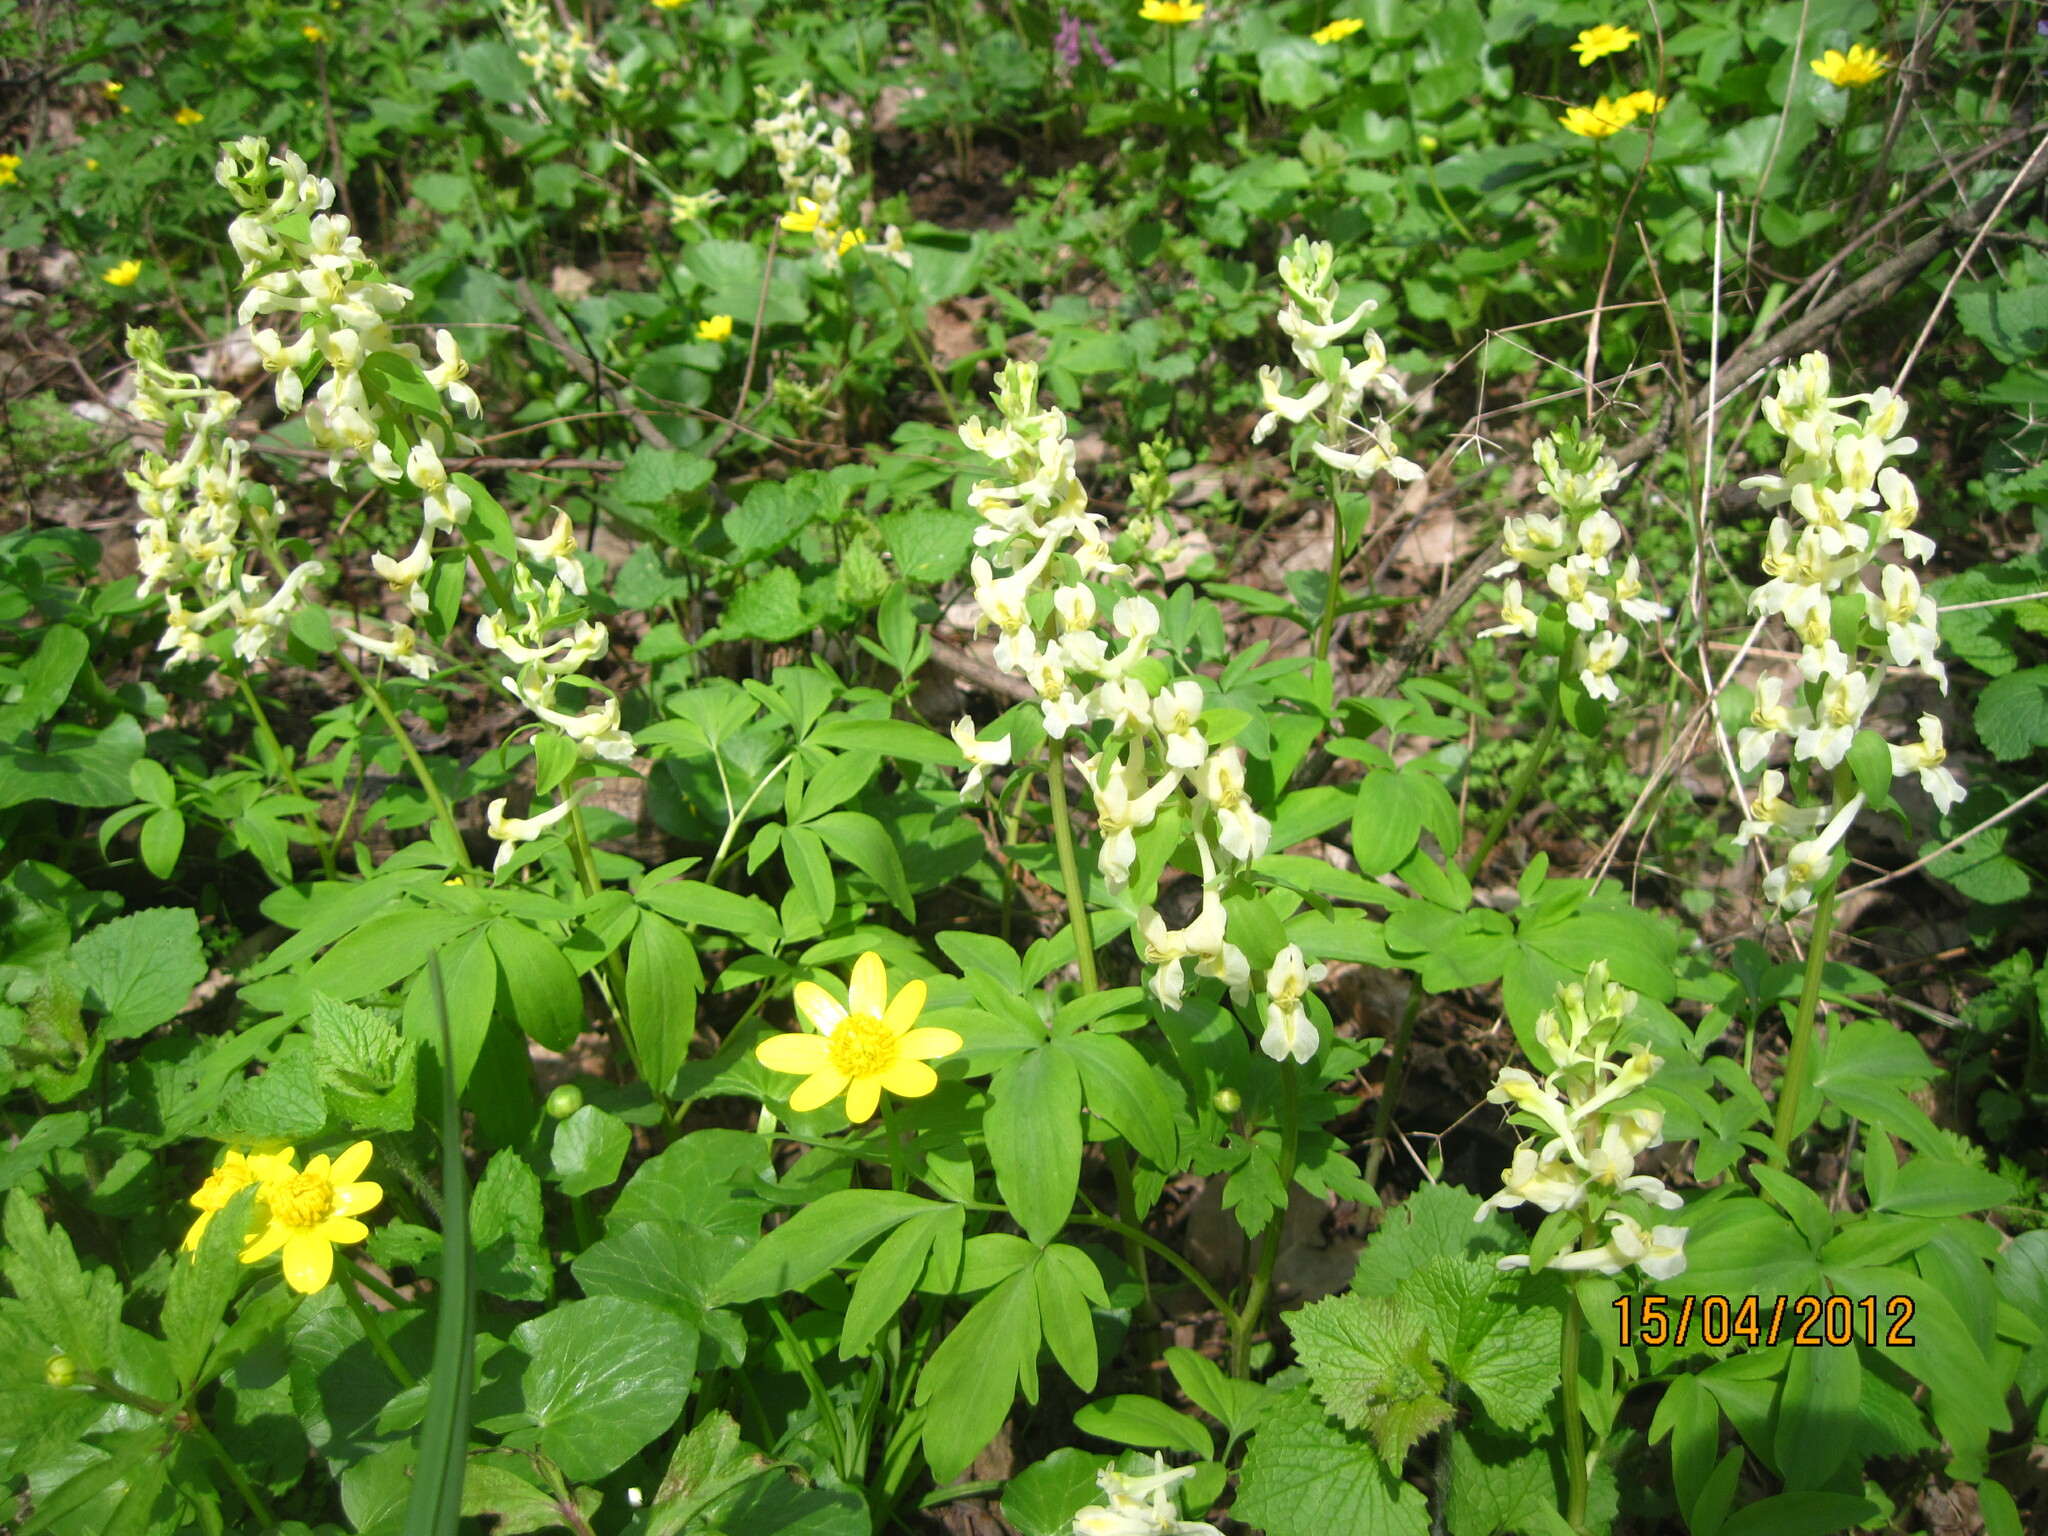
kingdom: Plantae
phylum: Tracheophyta
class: Magnoliopsida
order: Ranunculales
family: Papaveraceae
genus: Corydalis
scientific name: Corydalis cava
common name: Hollowroot
